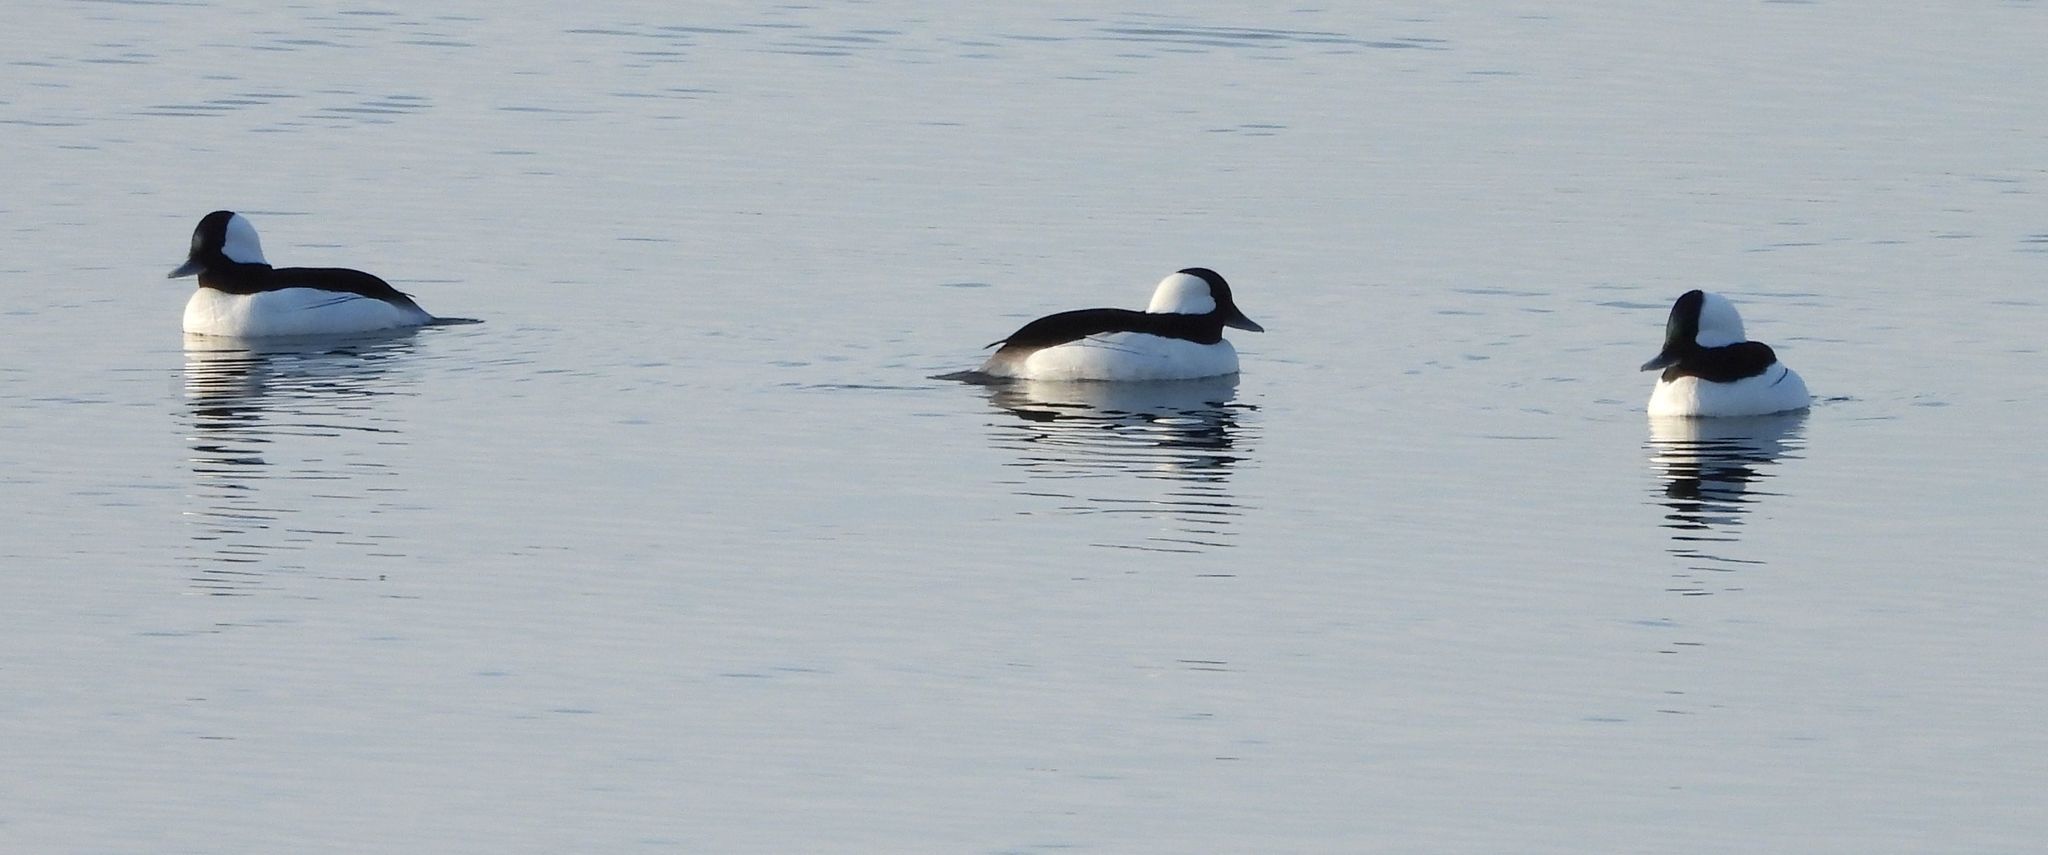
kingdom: Animalia
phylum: Chordata
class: Aves
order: Anseriformes
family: Anatidae
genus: Bucephala
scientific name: Bucephala albeola
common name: Bufflehead
